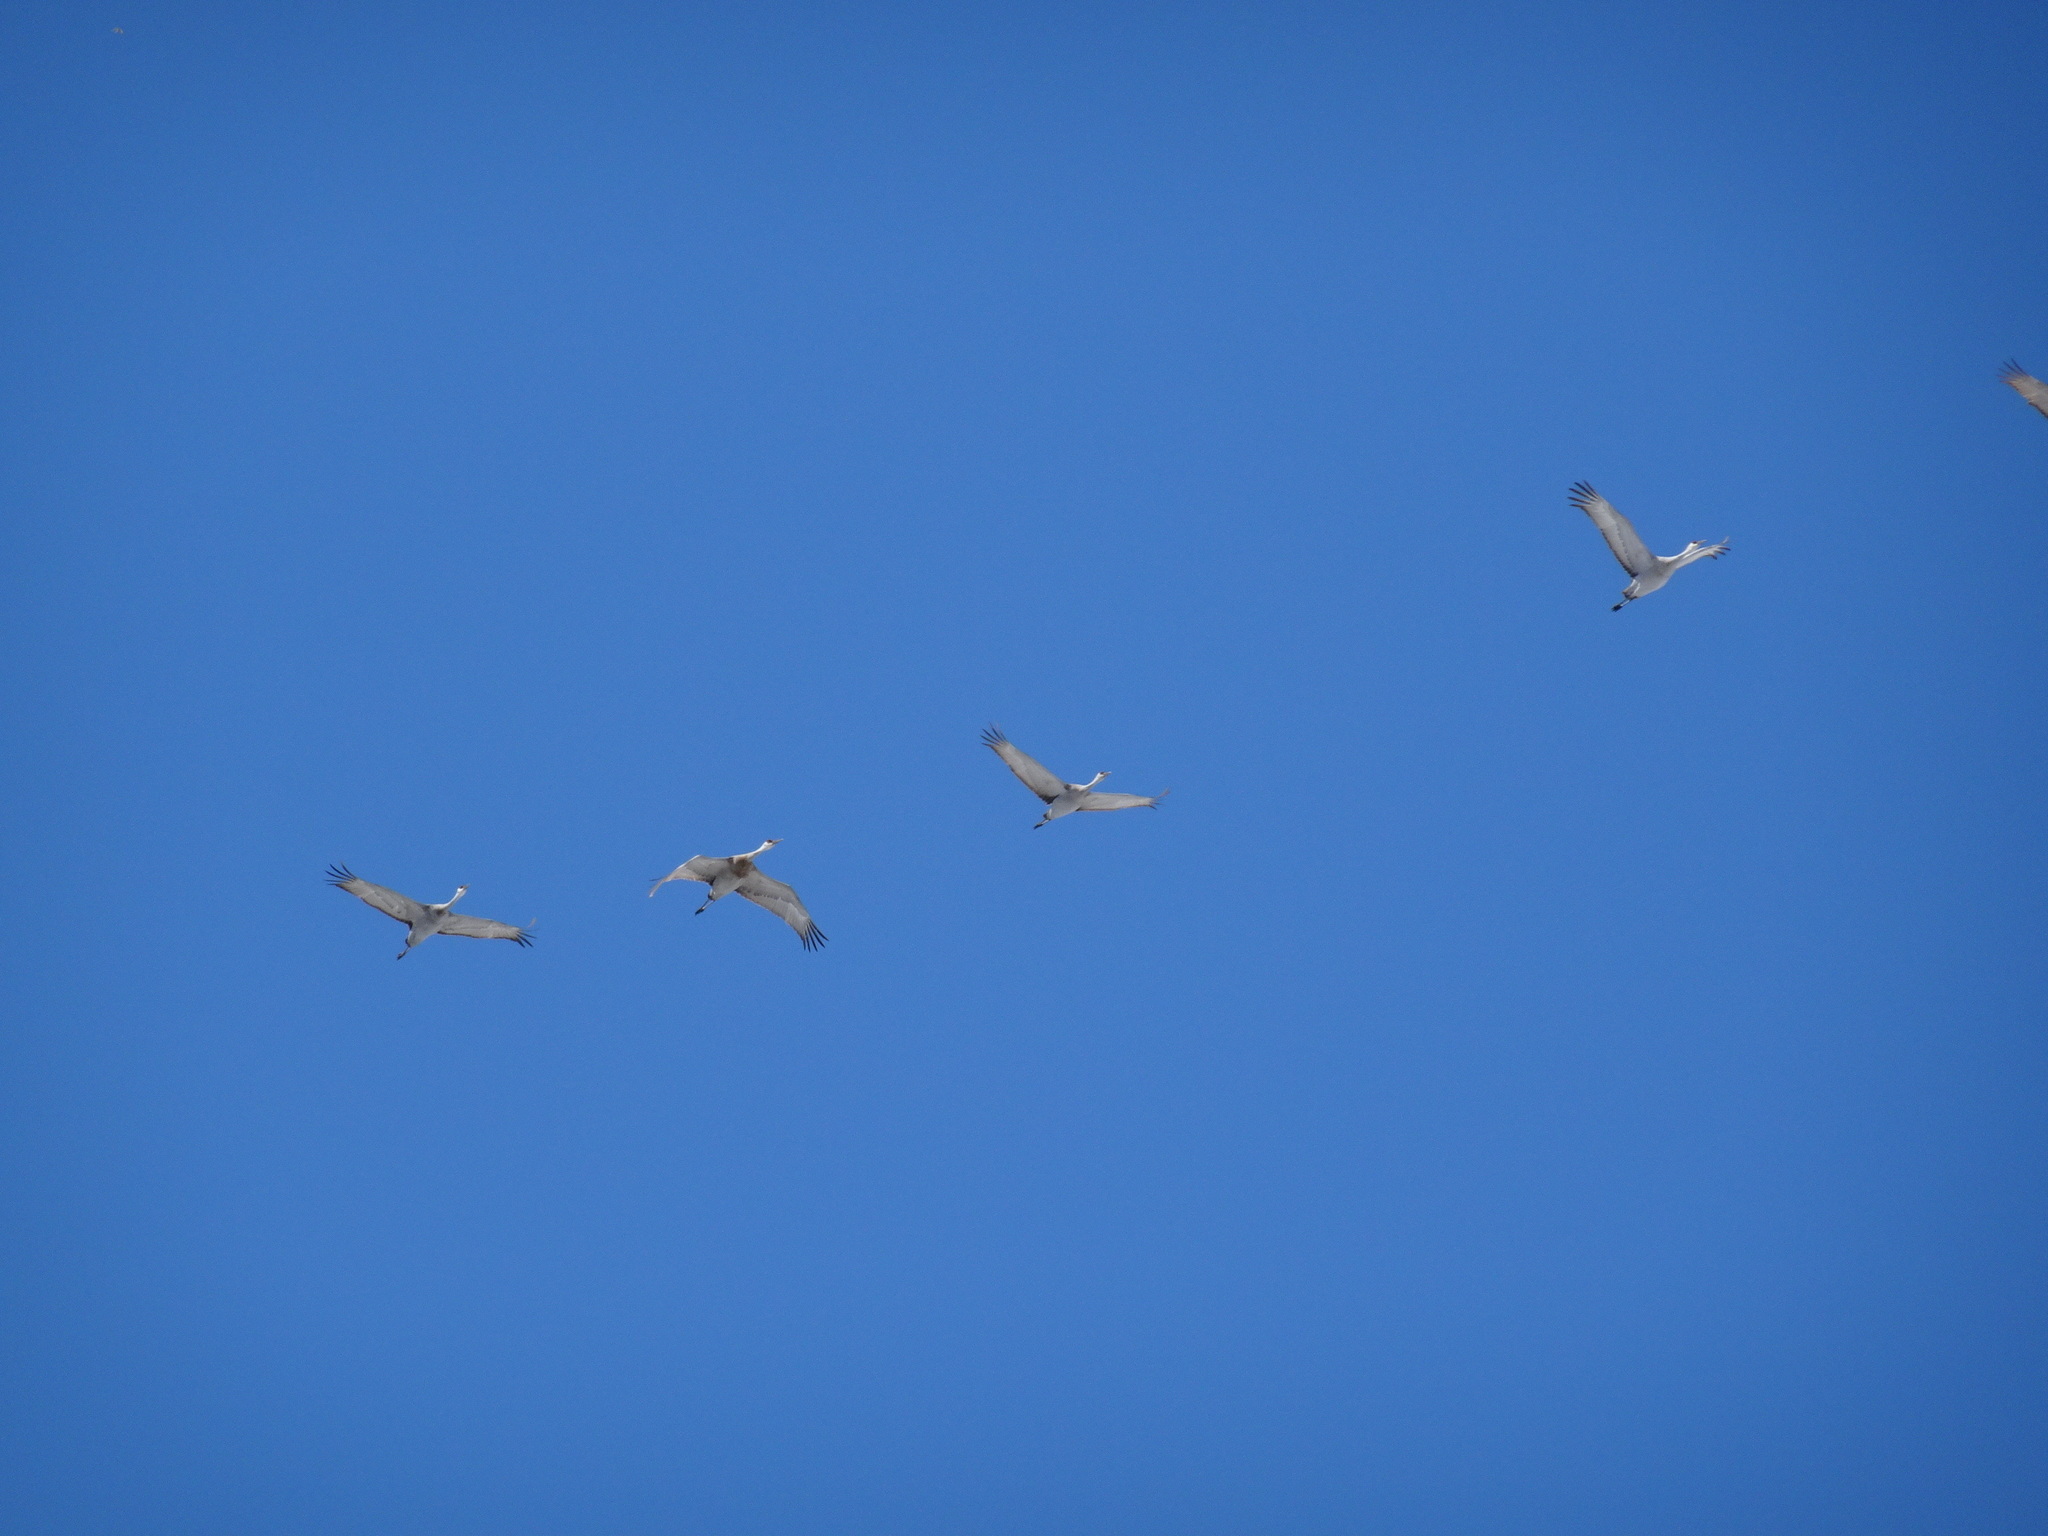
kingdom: Animalia
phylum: Chordata
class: Aves
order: Gruiformes
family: Gruidae
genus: Grus
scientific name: Grus canadensis
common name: Sandhill crane
